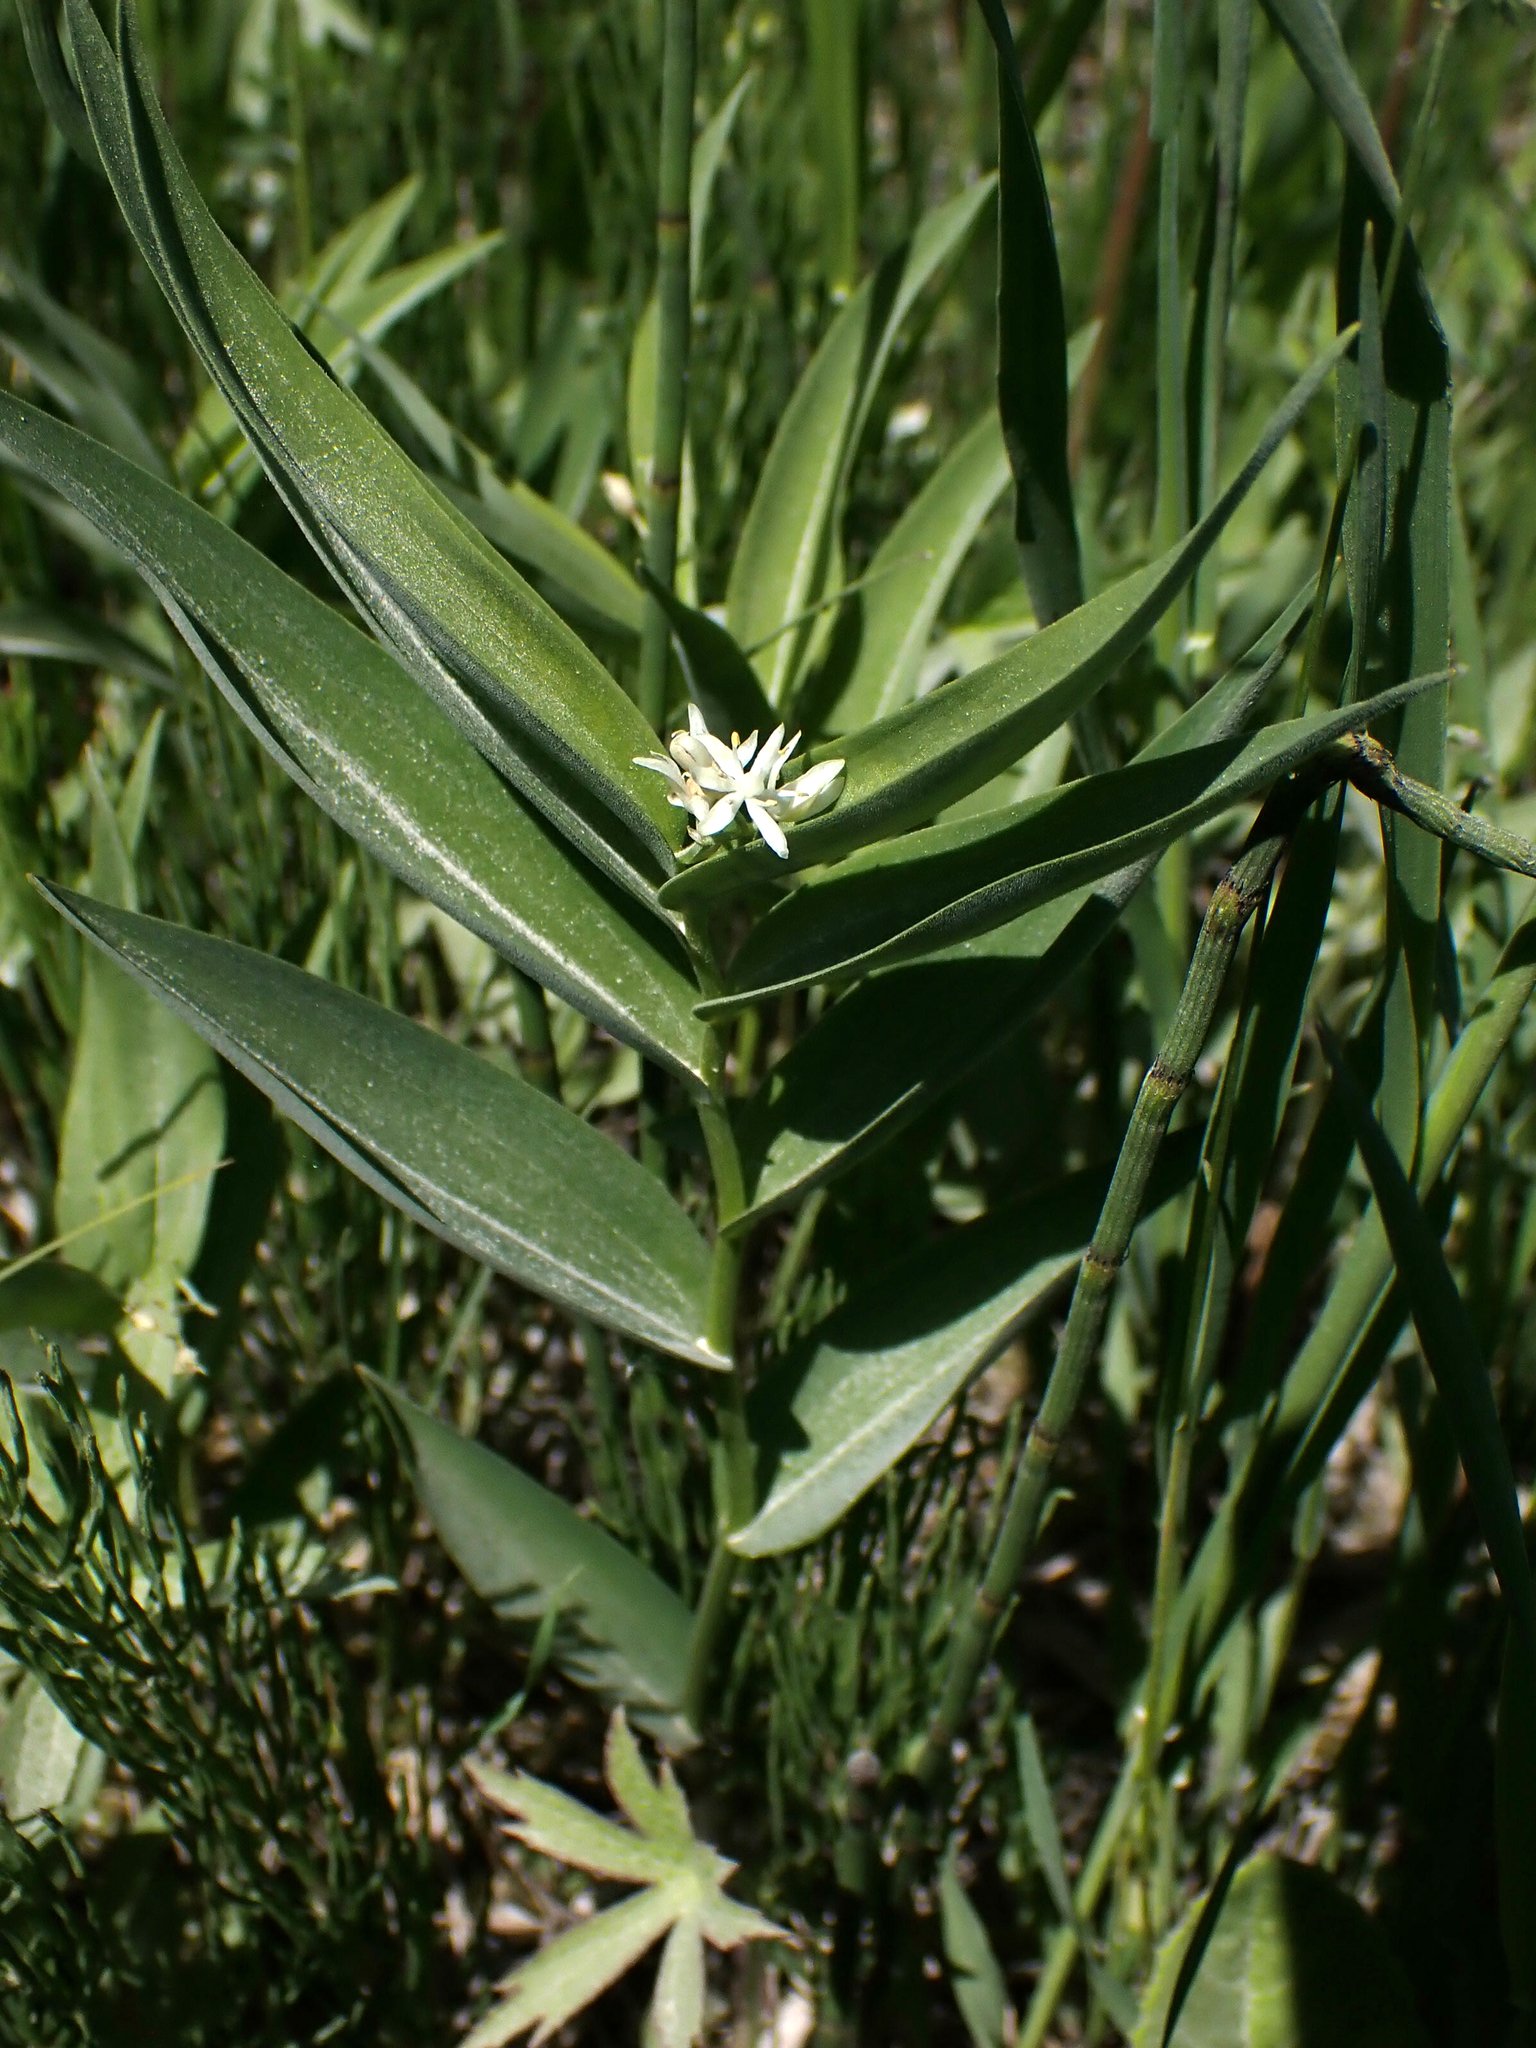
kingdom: Plantae
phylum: Tracheophyta
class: Liliopsida
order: Asparagales
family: Asparagaceae
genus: Maianthemum
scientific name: Maianthemum stellatum
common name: Little false solomon's seal
